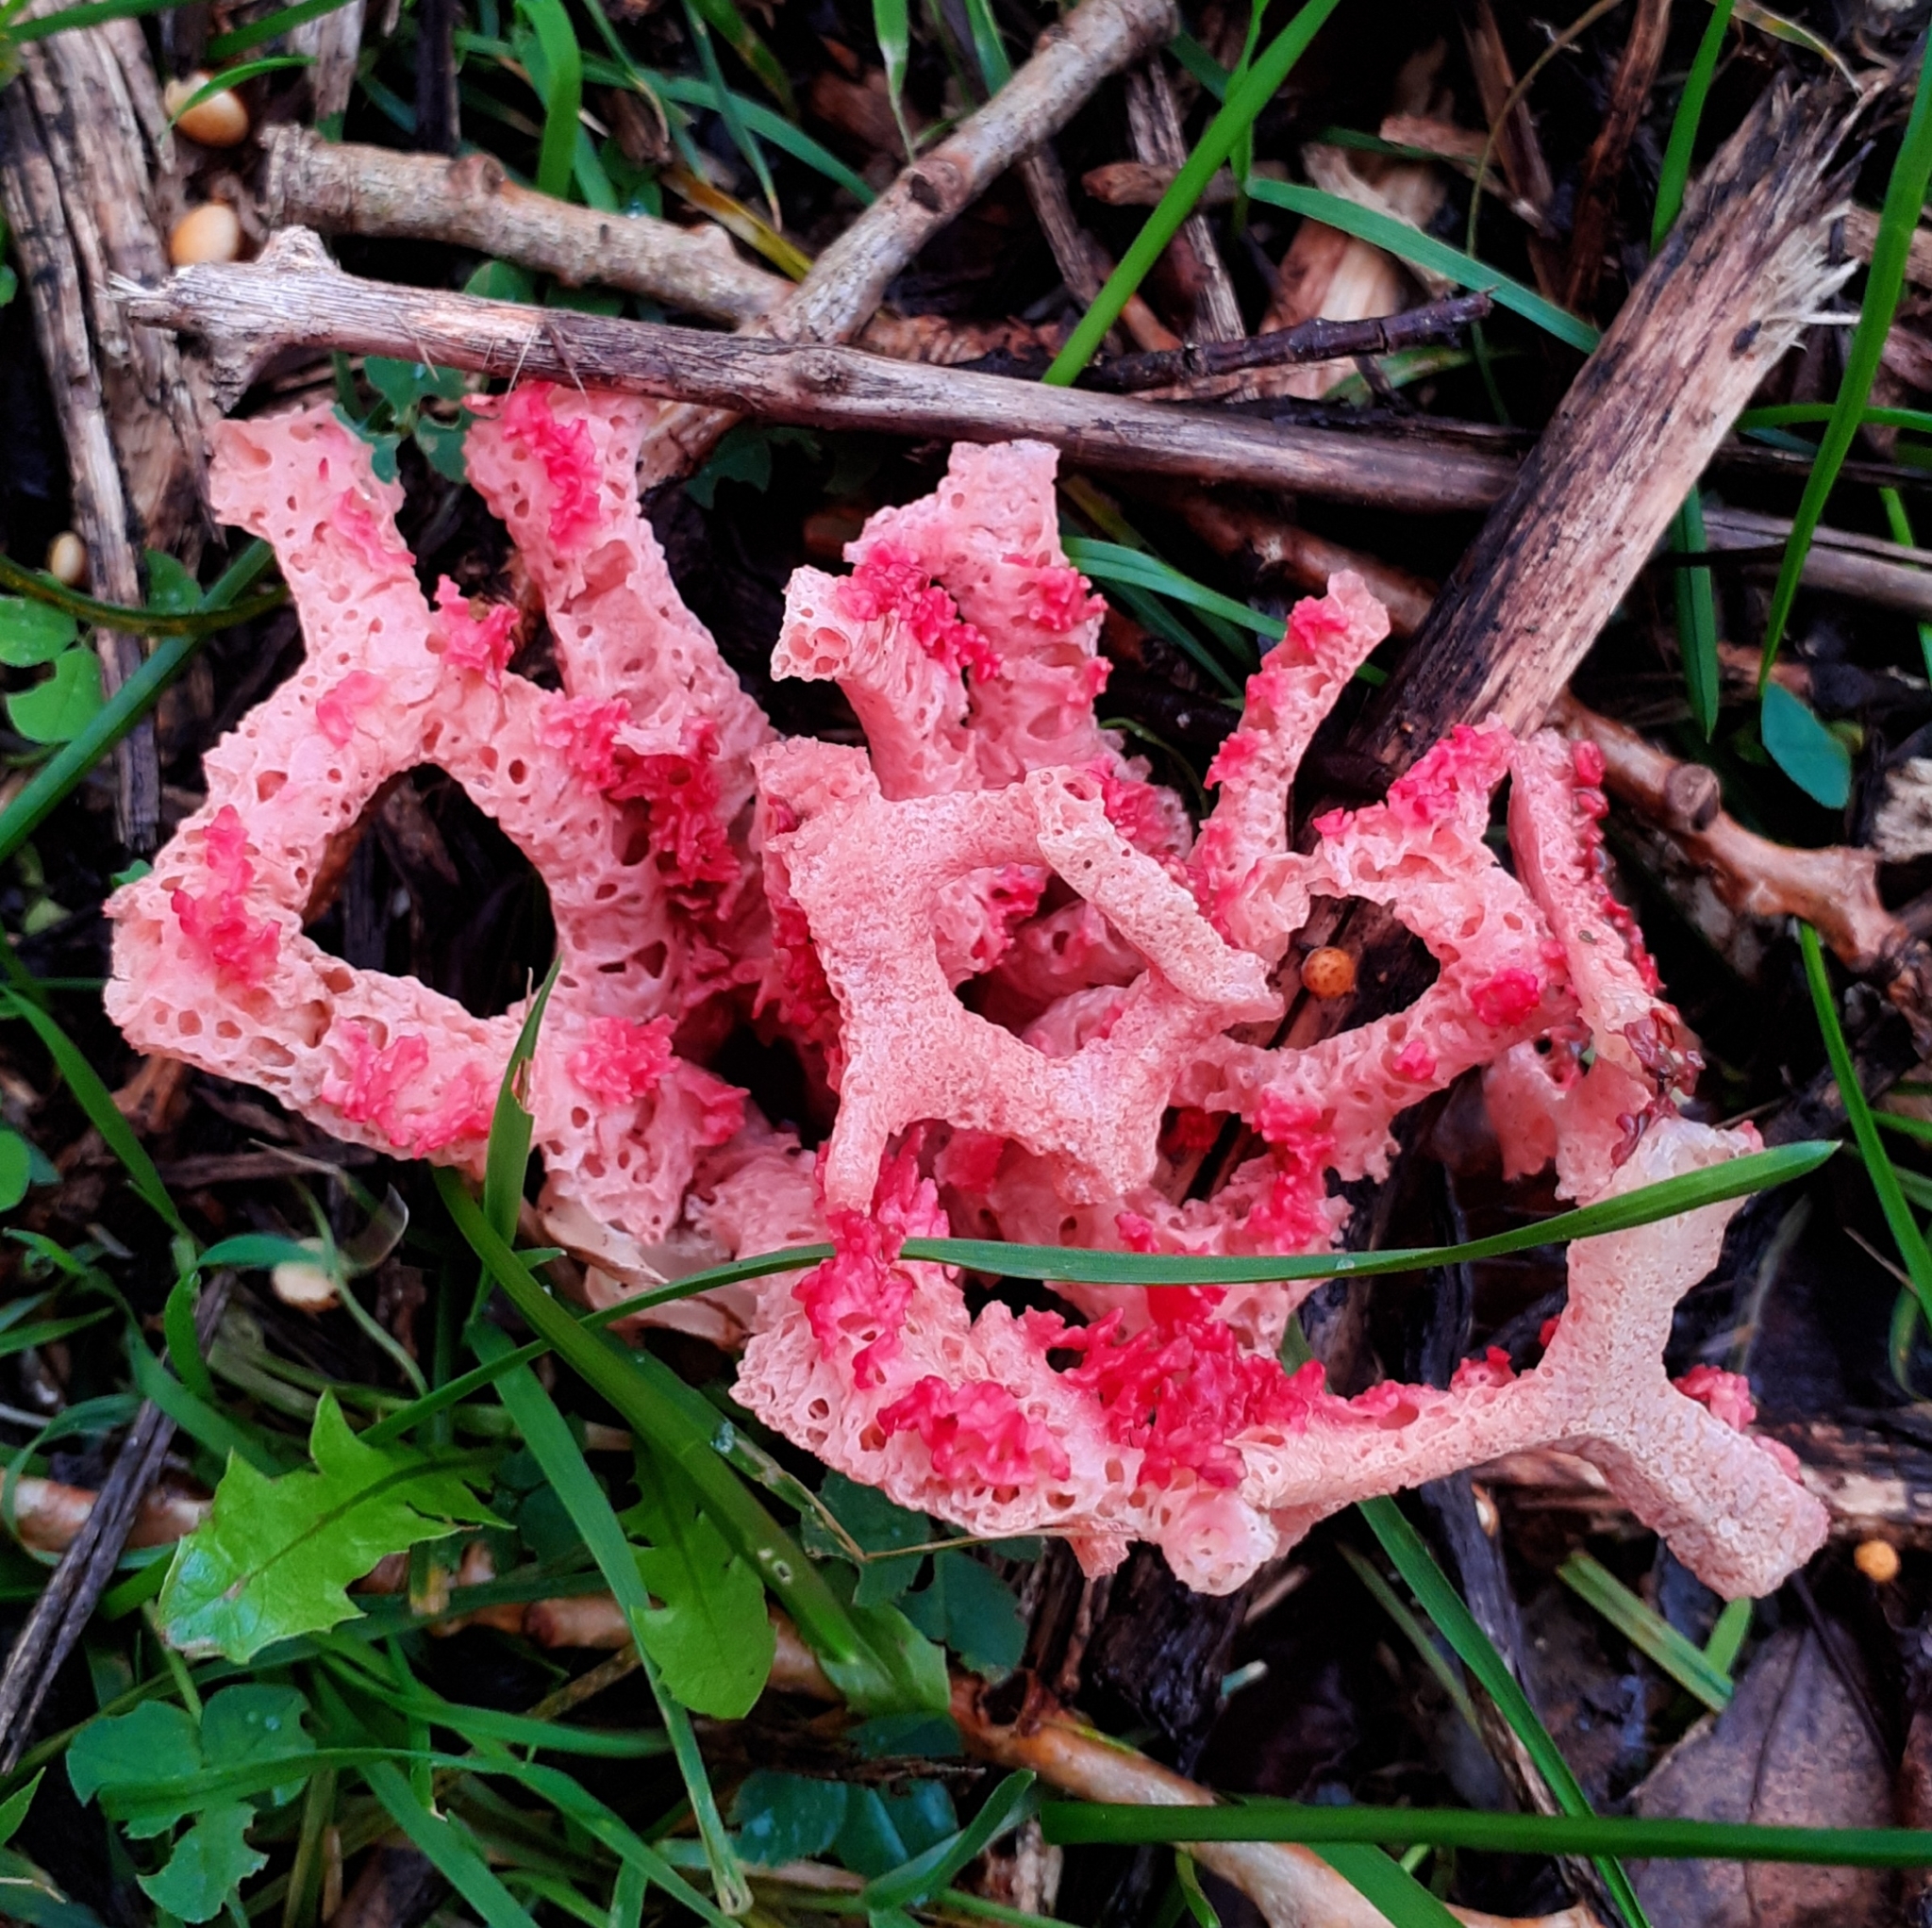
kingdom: Fungi
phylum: Basidiomycota
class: Agaricomycetes
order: Phallales
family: Phallaceae
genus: Clathrus
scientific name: Clathrus ruber
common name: Red cage
